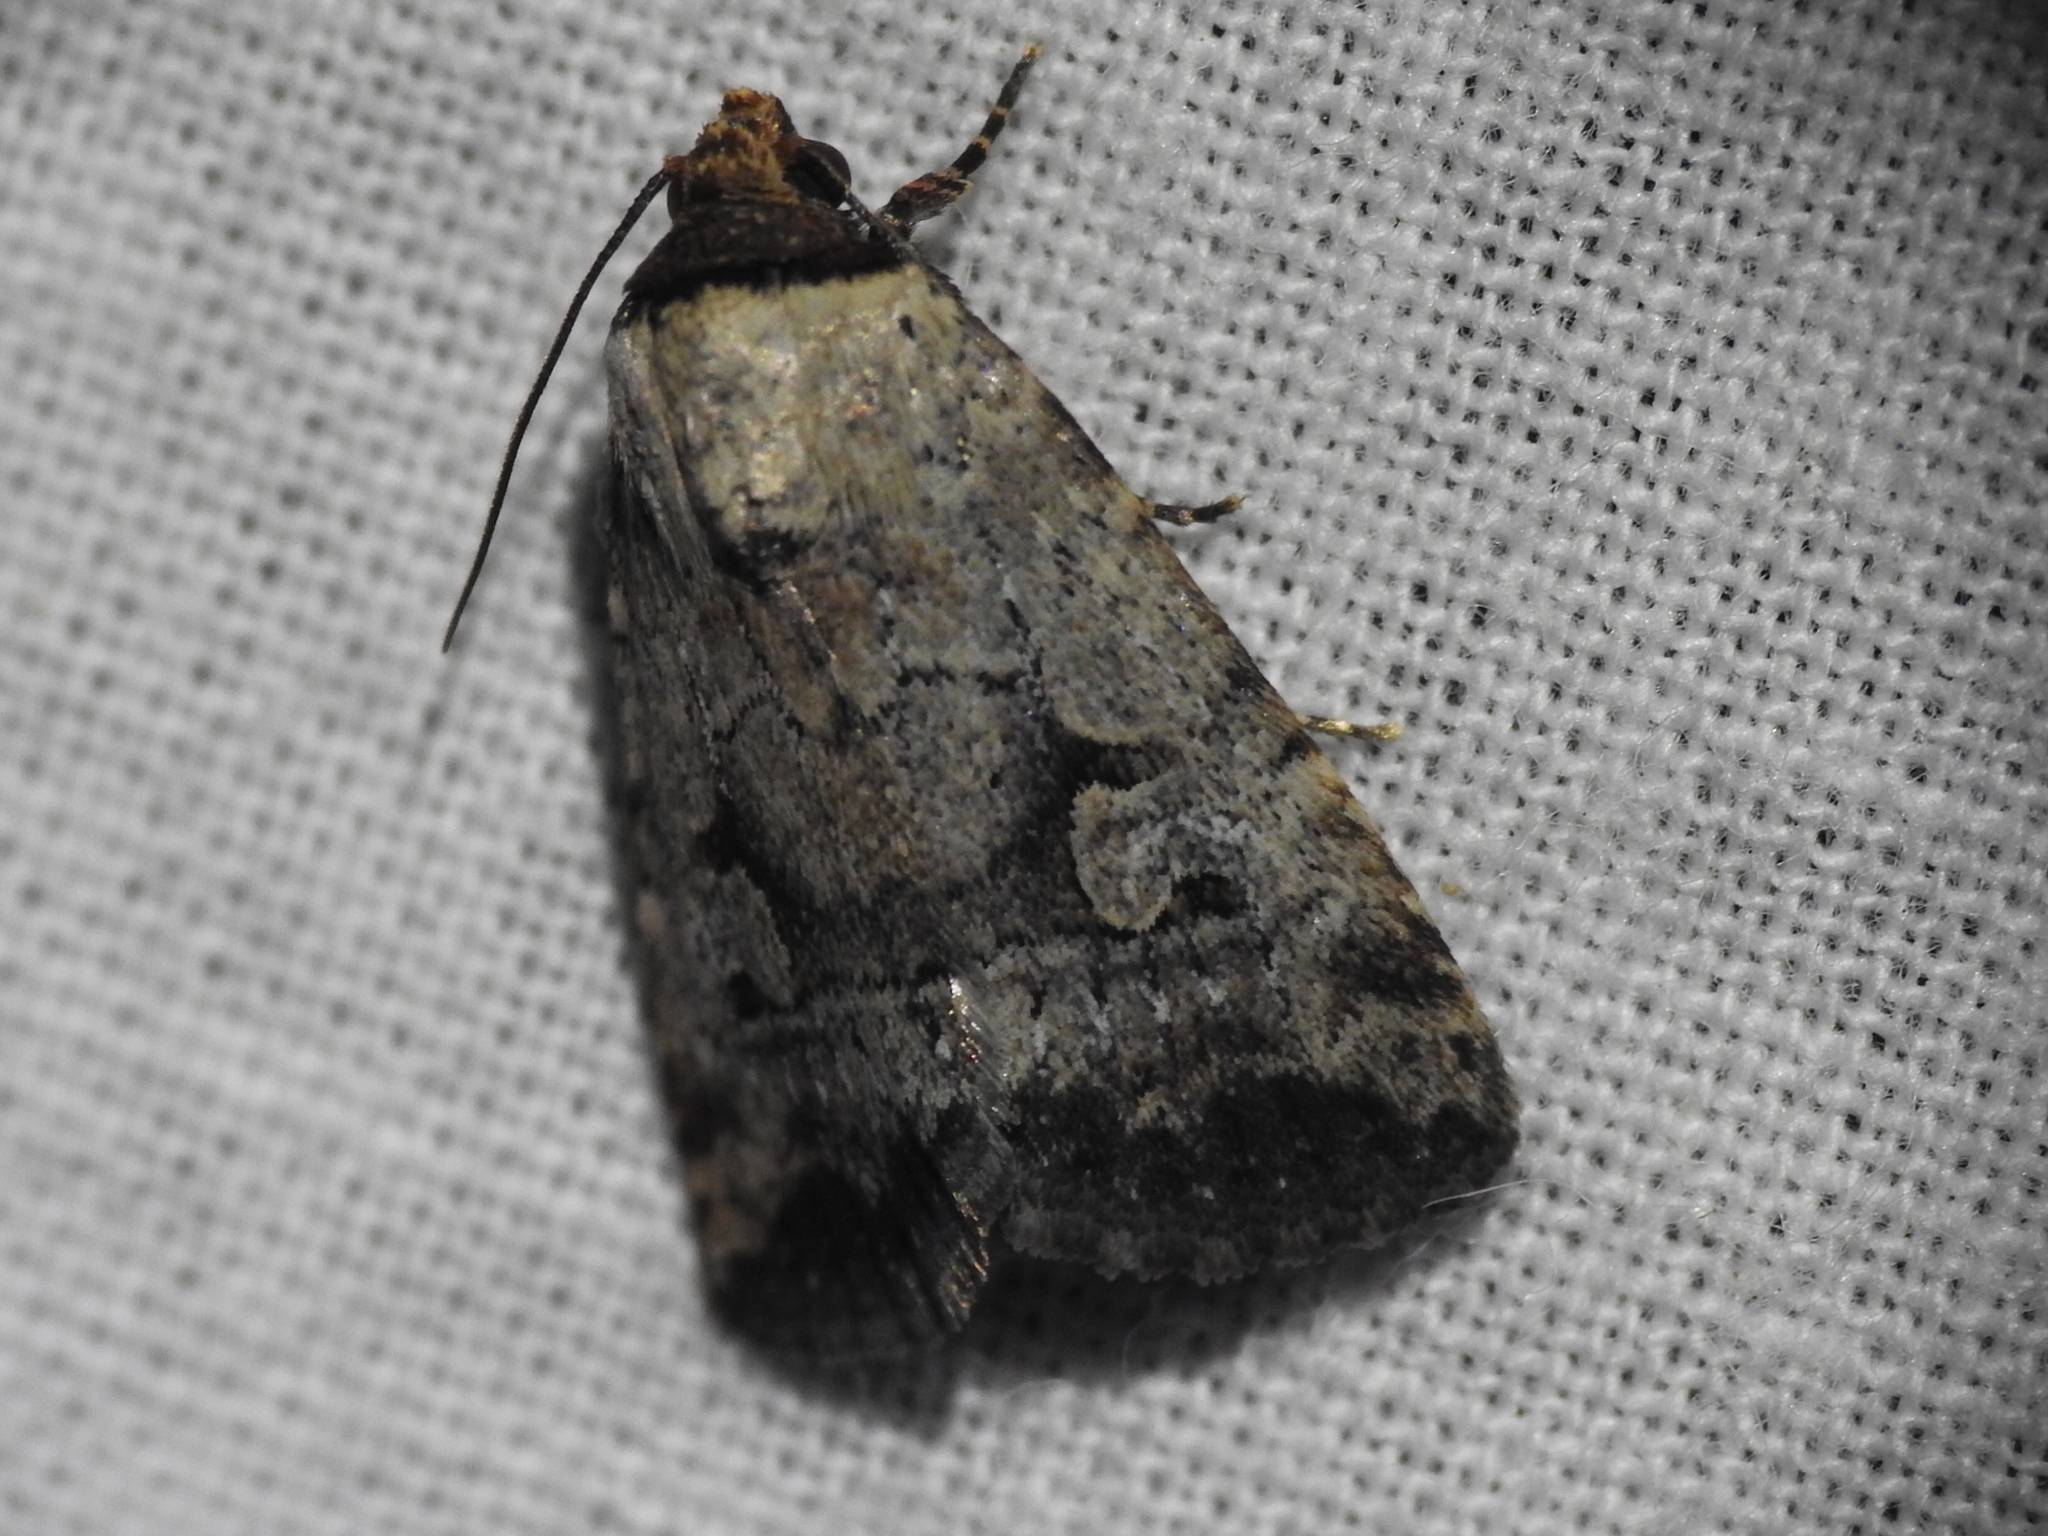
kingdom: Animalia
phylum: Arthropoda
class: Insecta
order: Lepidoptera
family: Noctuidae
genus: Elaphria
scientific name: Elaphria festivoides
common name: Festive midget
